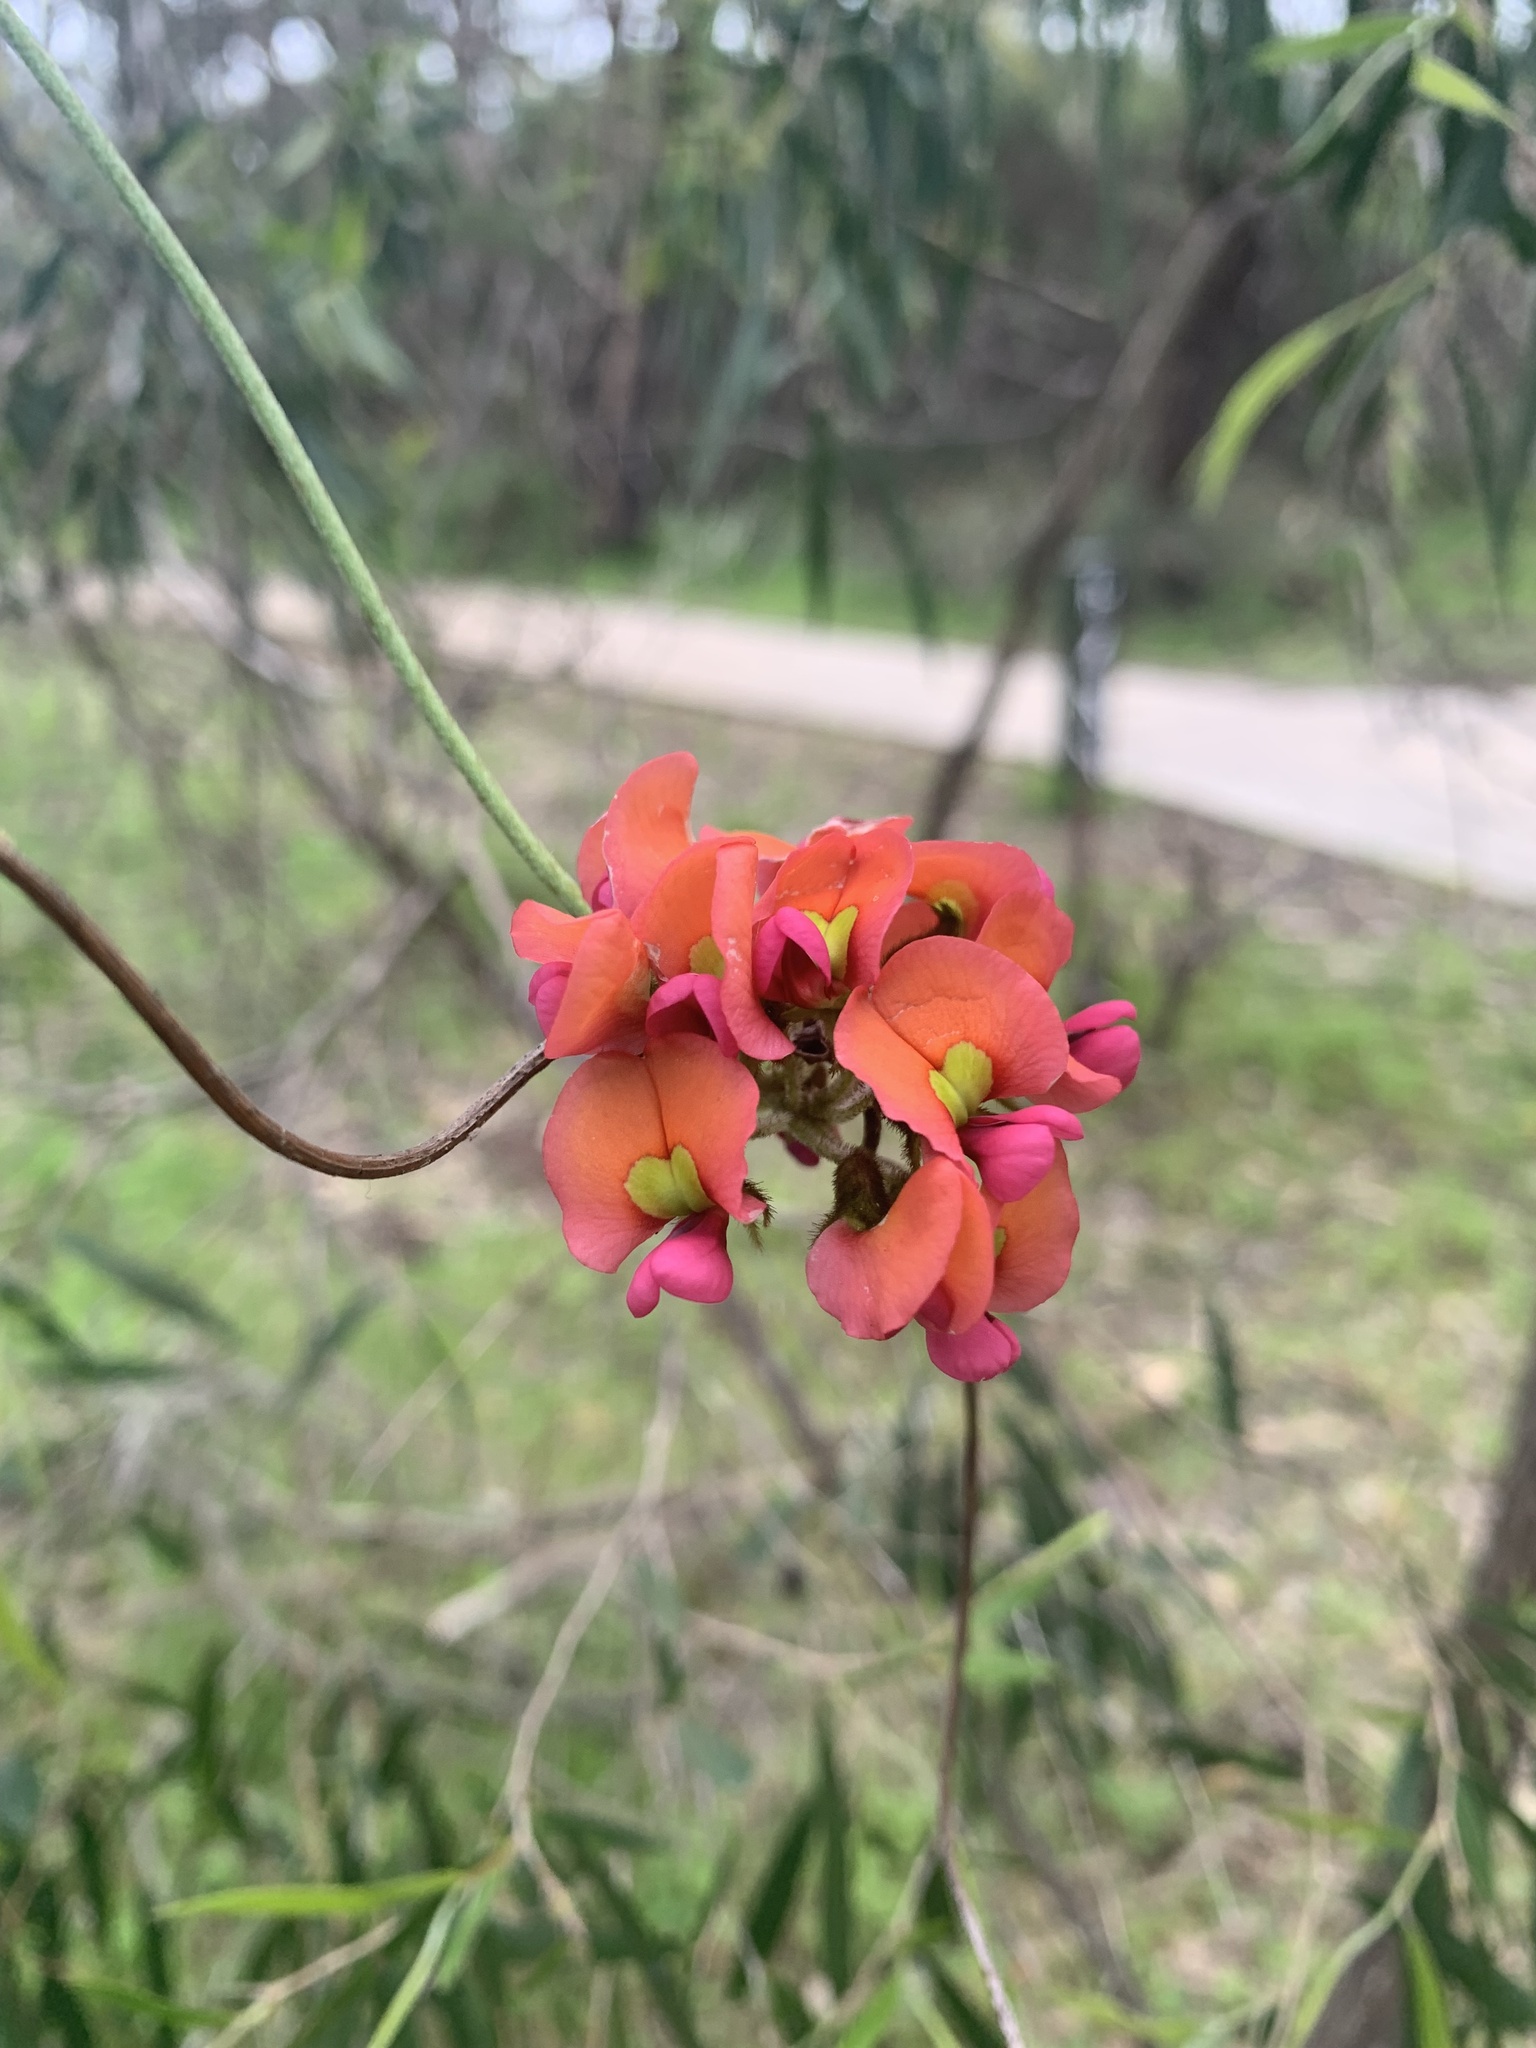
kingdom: Plantae
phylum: Tracheophyta
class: Magnoliopsida
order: Fabales
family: Fabaceae
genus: Kennedia
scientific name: Kennedia coccinea
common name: Coralvine
